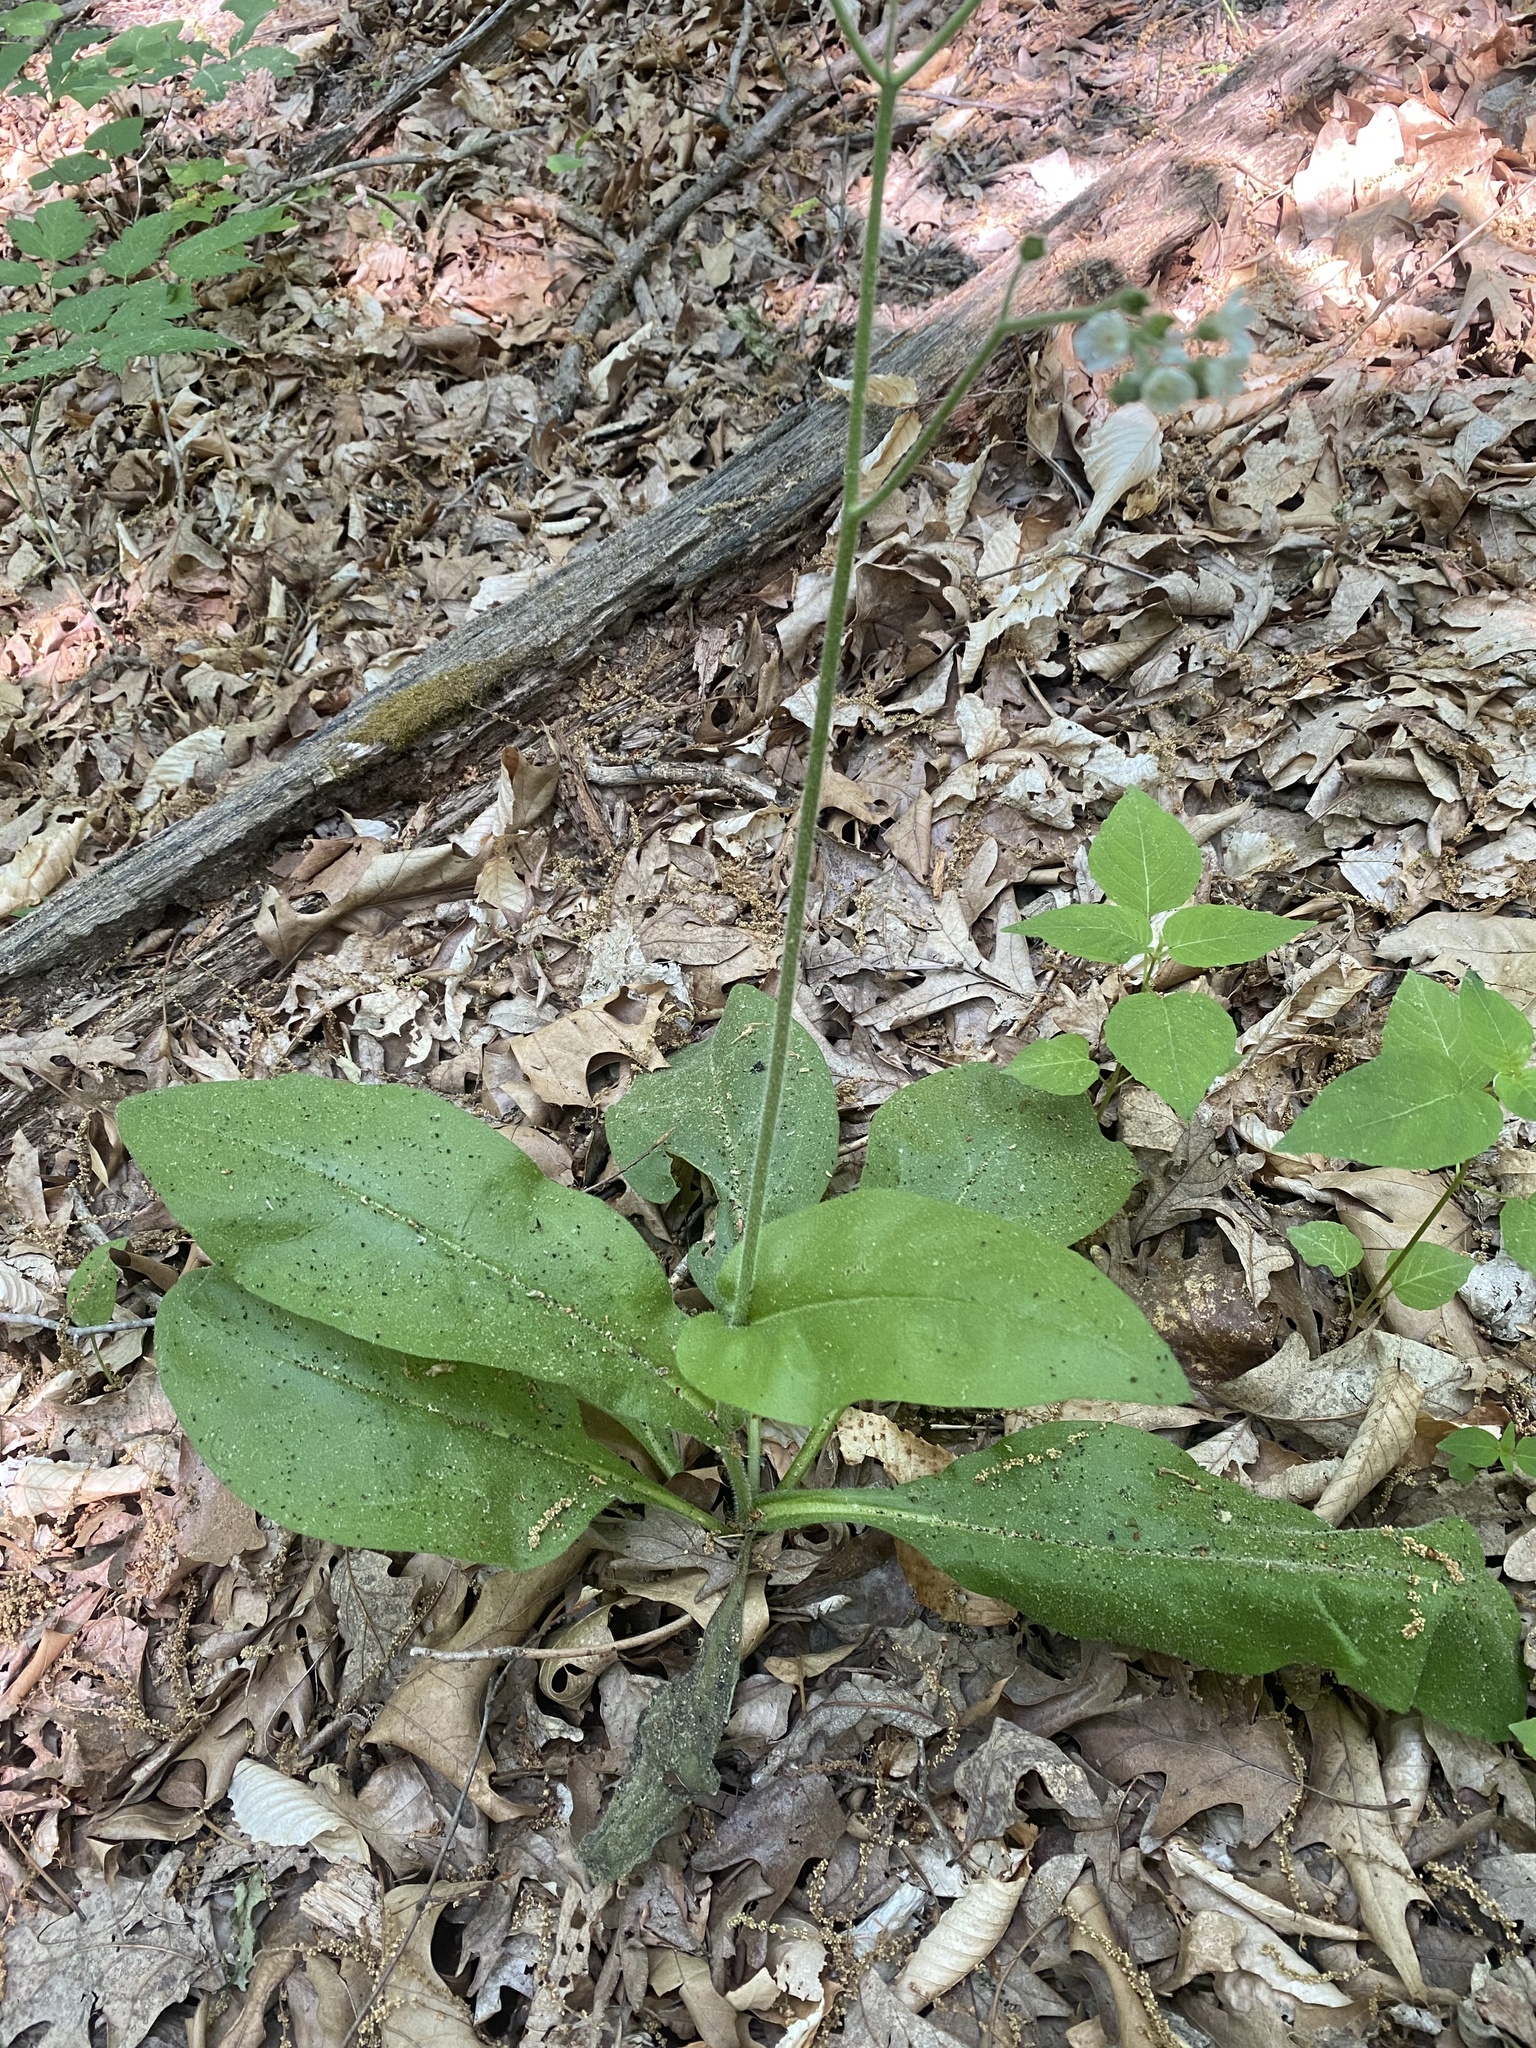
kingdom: Plantae
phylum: Tracheophyta
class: Magnoliopsida
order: Boraginales
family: Boraginaceae
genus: Andersonglossum
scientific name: Andersonglossum virginianum
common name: Wild comfrey
